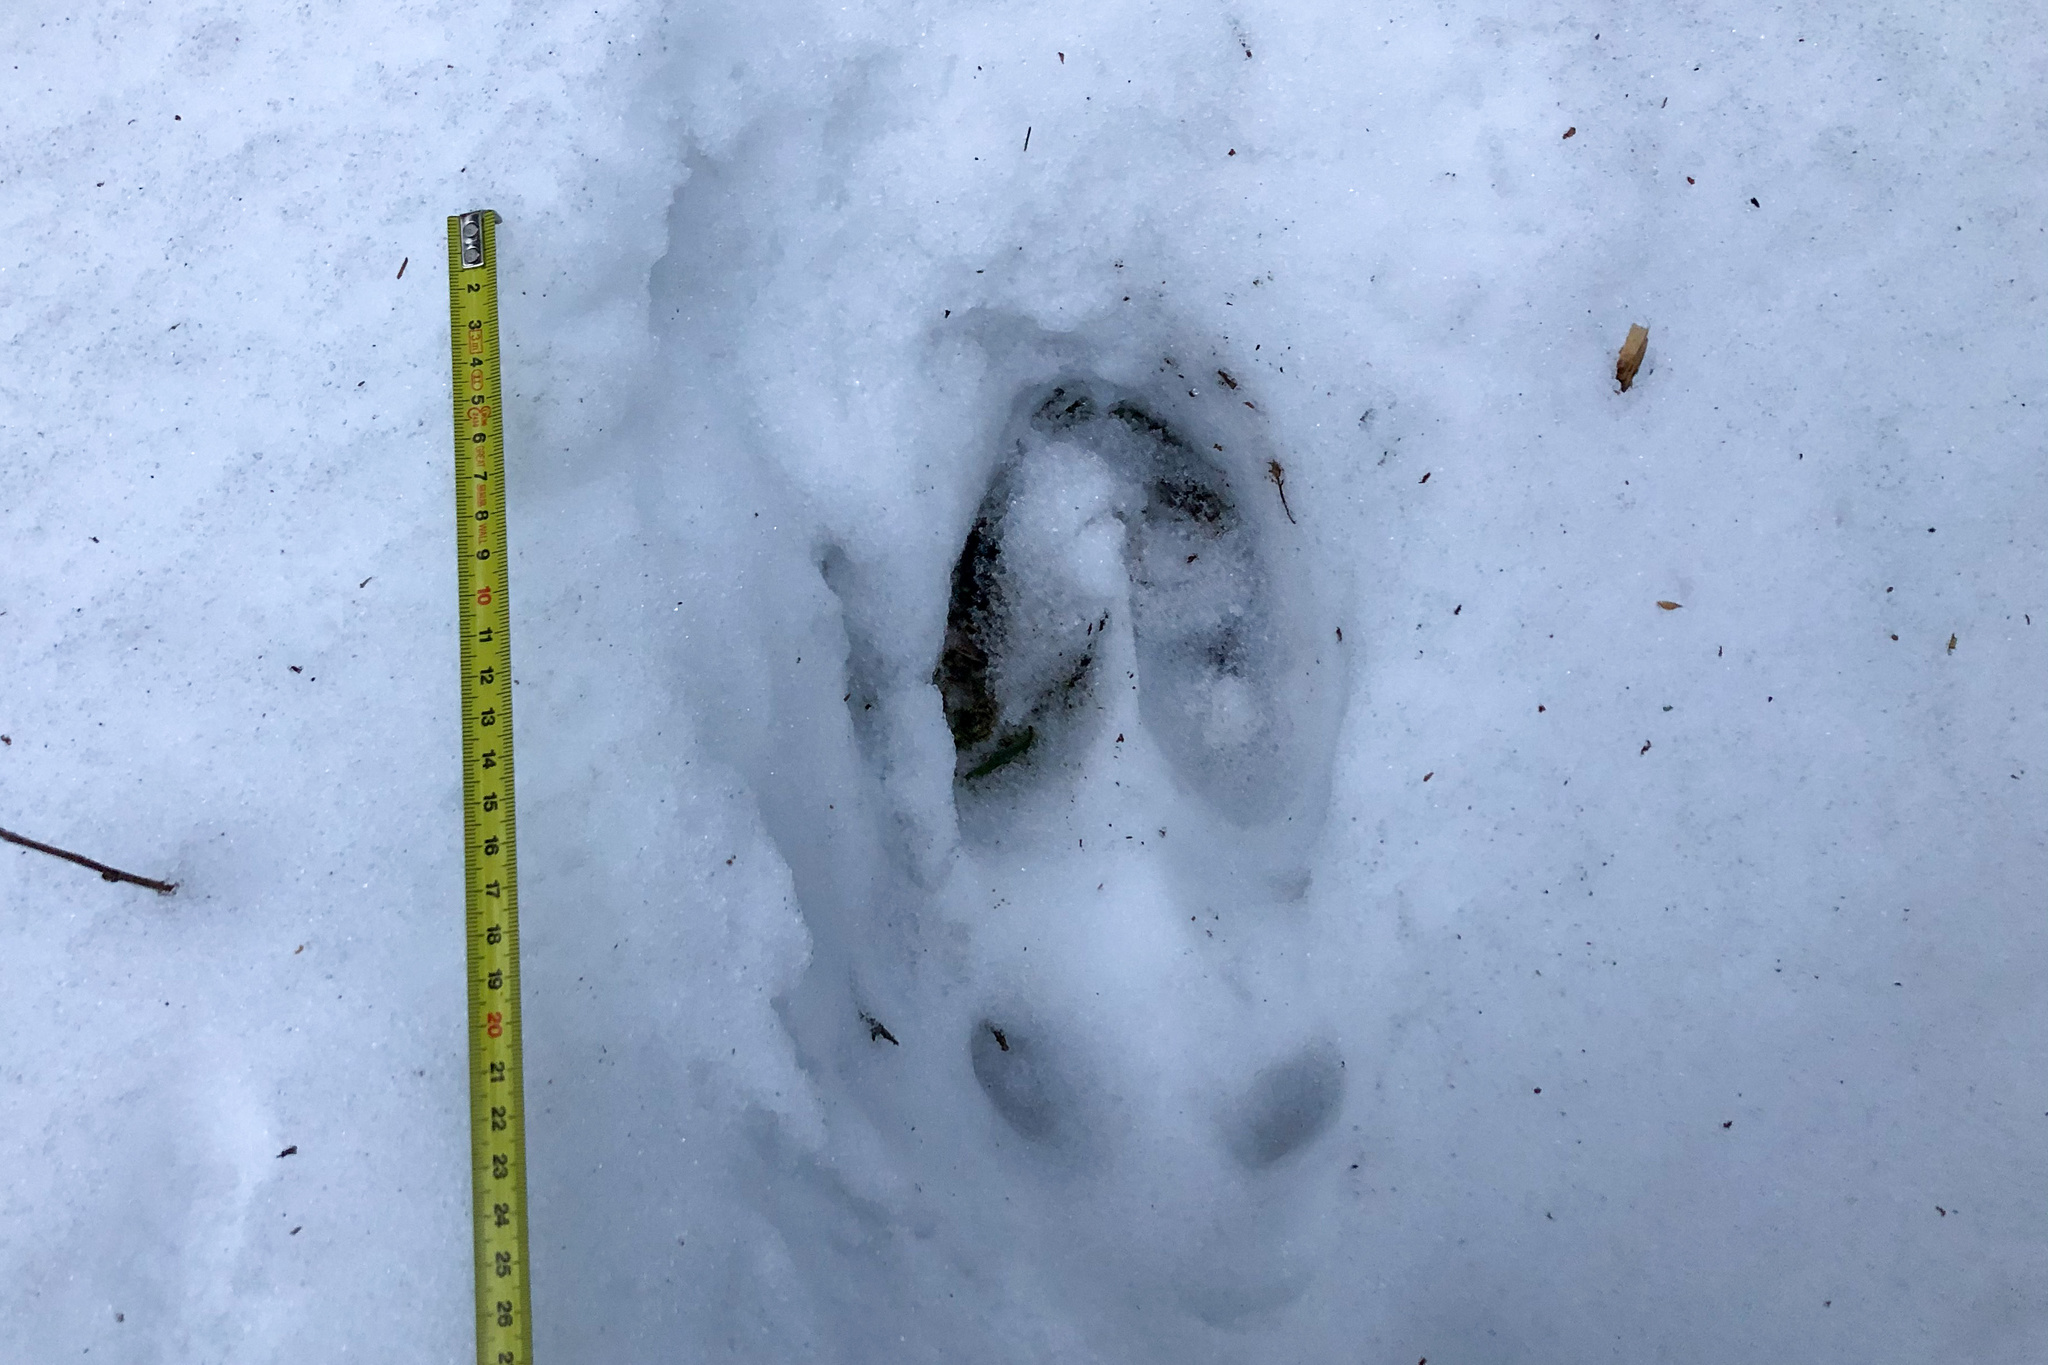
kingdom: Animalia
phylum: Chordata
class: Mammalia
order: Artiodactyla
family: Cervidae
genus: Alces
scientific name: Alces alces
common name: Moose
